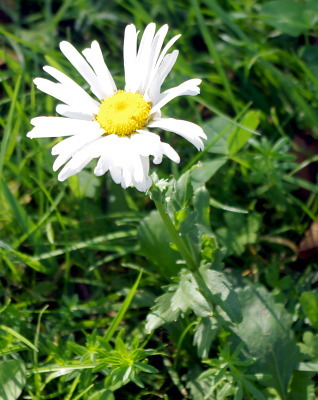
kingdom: Plantae
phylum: Tracheophyta
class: Magnoliopsida
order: Asterales
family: Asteraceae
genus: Leucanthemum
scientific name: Leucanthemum vulgare
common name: Oxeye daisy
